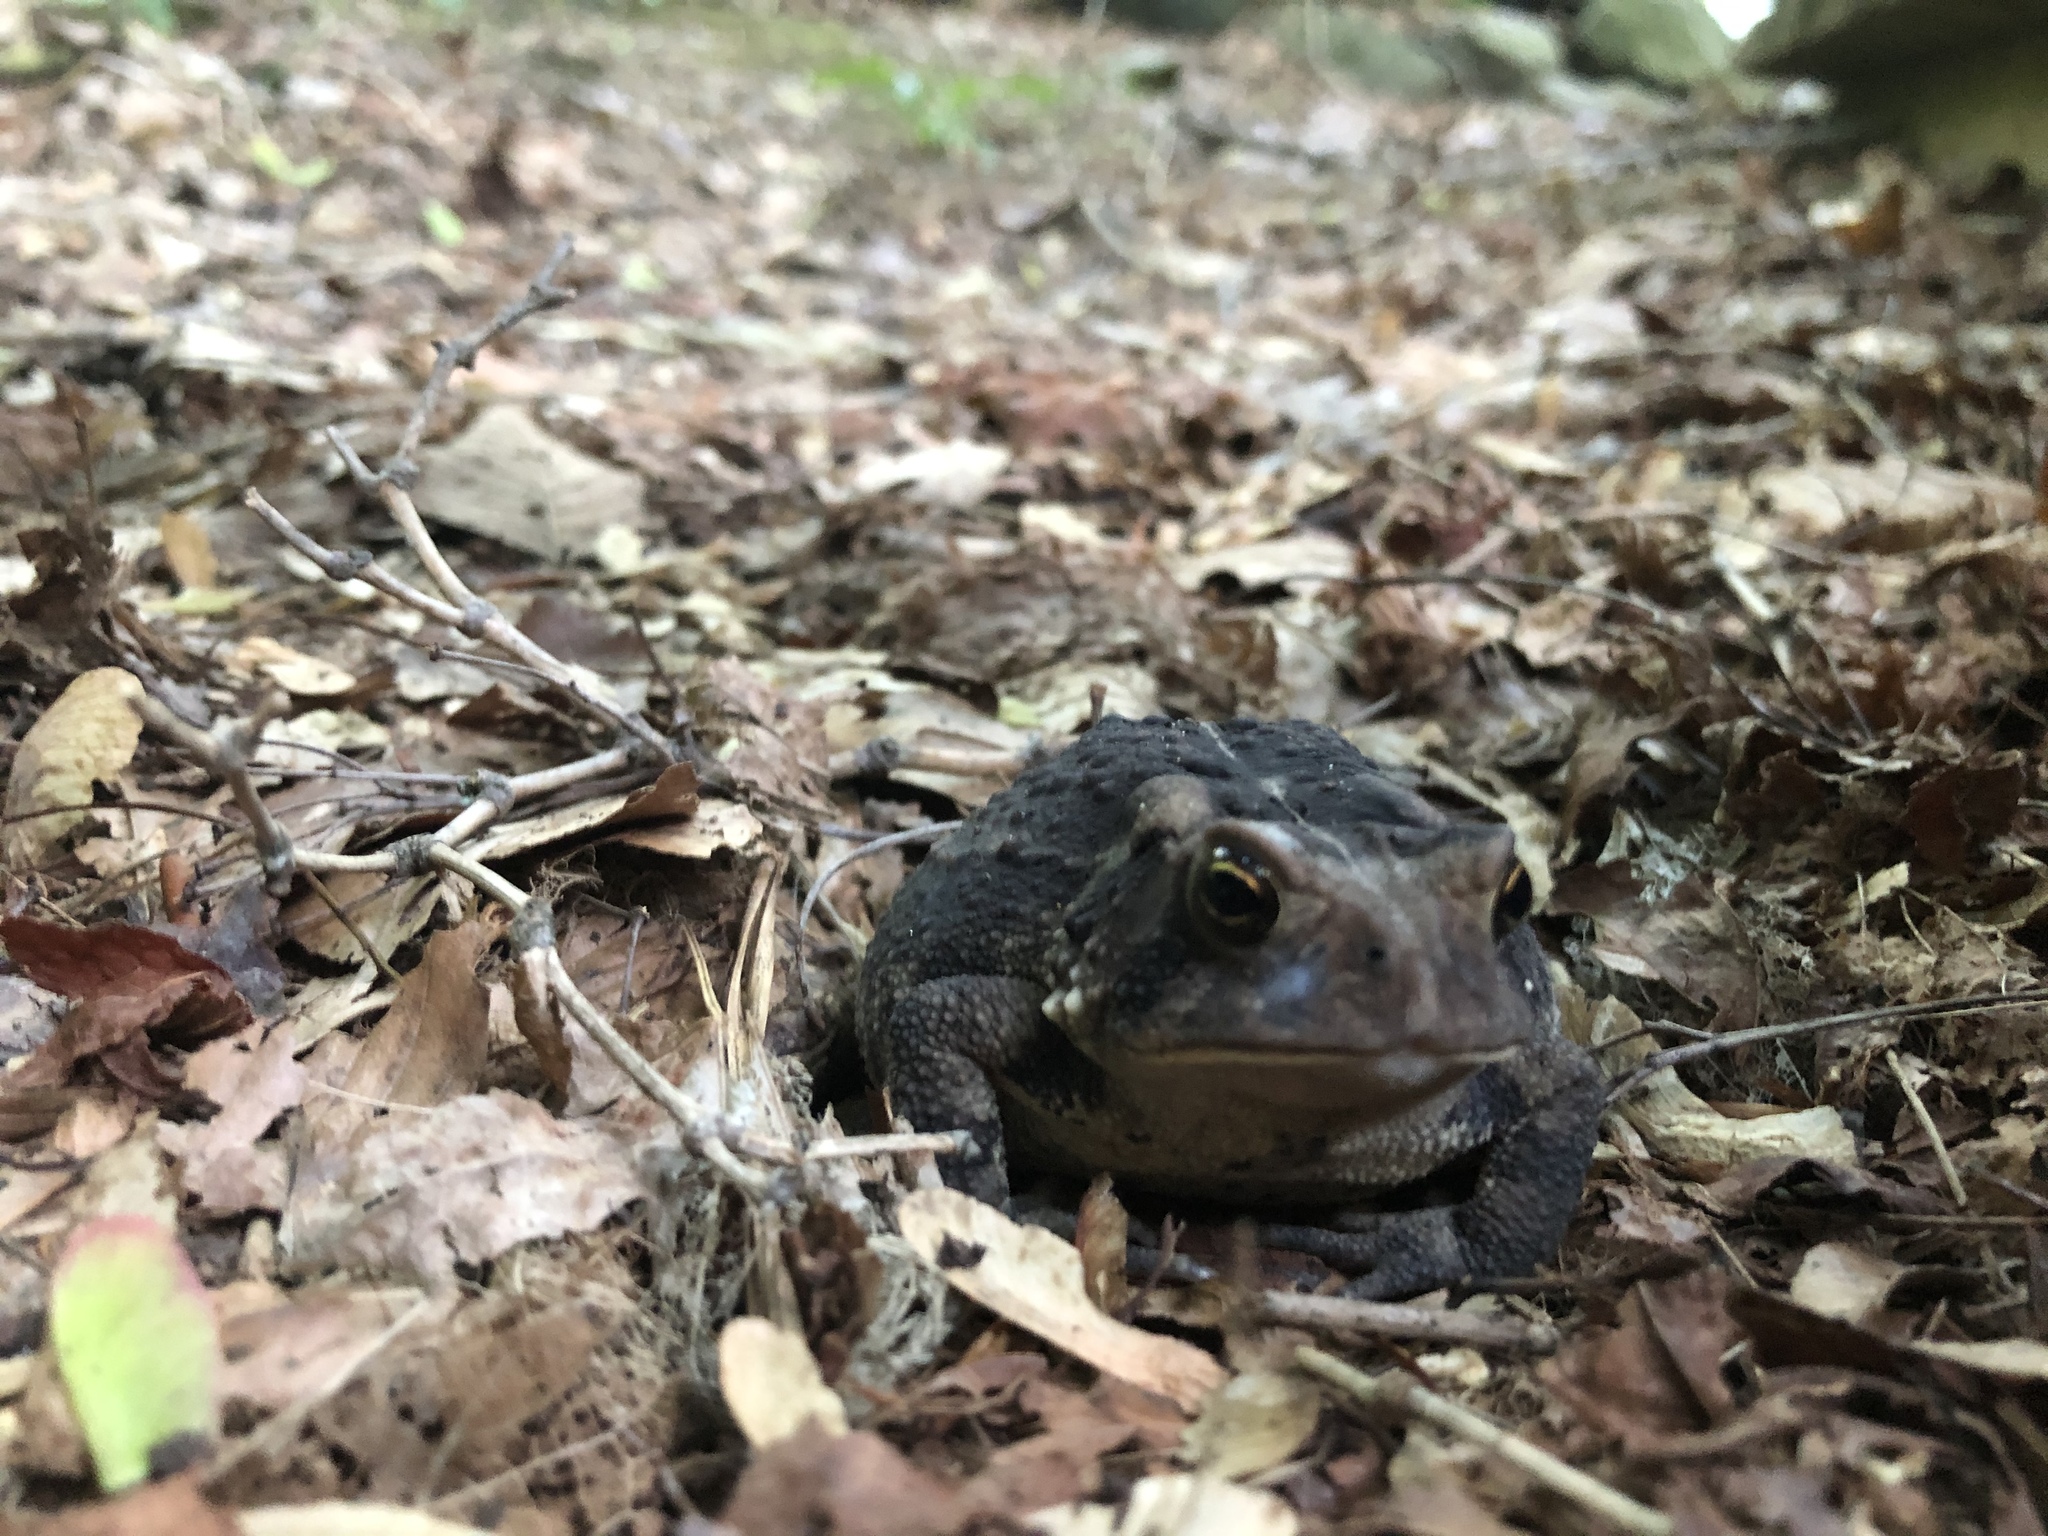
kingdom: Animalia
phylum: Chordata
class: Amphibia
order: Anura
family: Bufonidae
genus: Anaxyrus
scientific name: Anaxyrus americanus
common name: American toad
